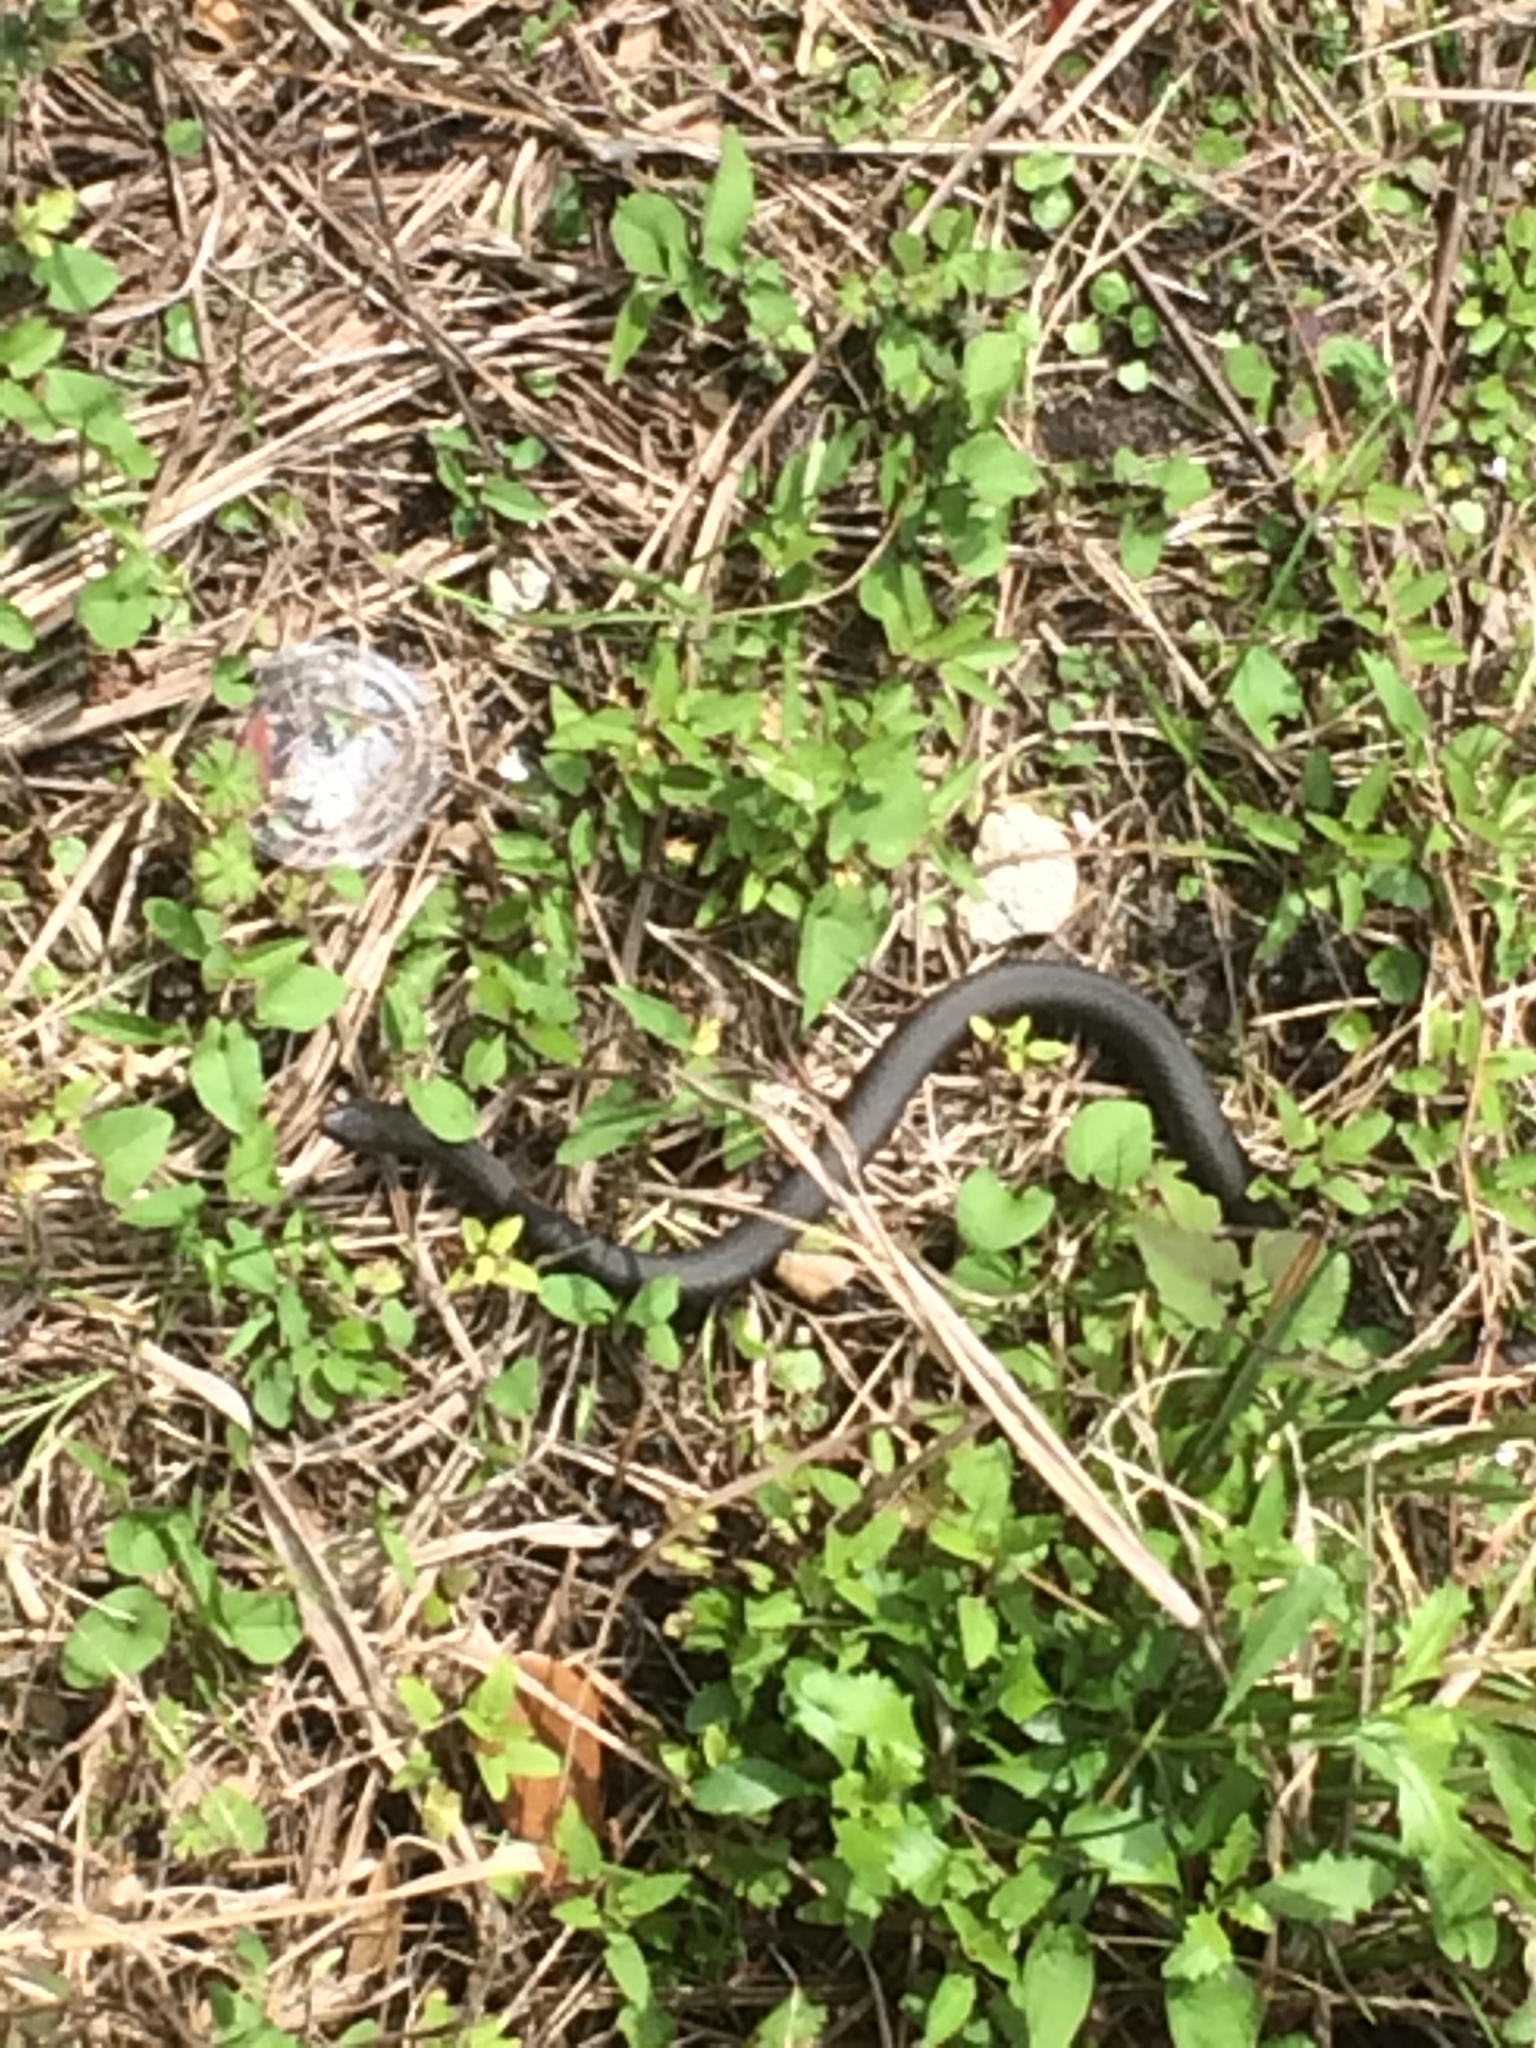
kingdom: Animalia
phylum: Chordata
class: Squamata
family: Colubridae
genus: Coluber
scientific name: Coluber constrictor
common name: Eastern racer
